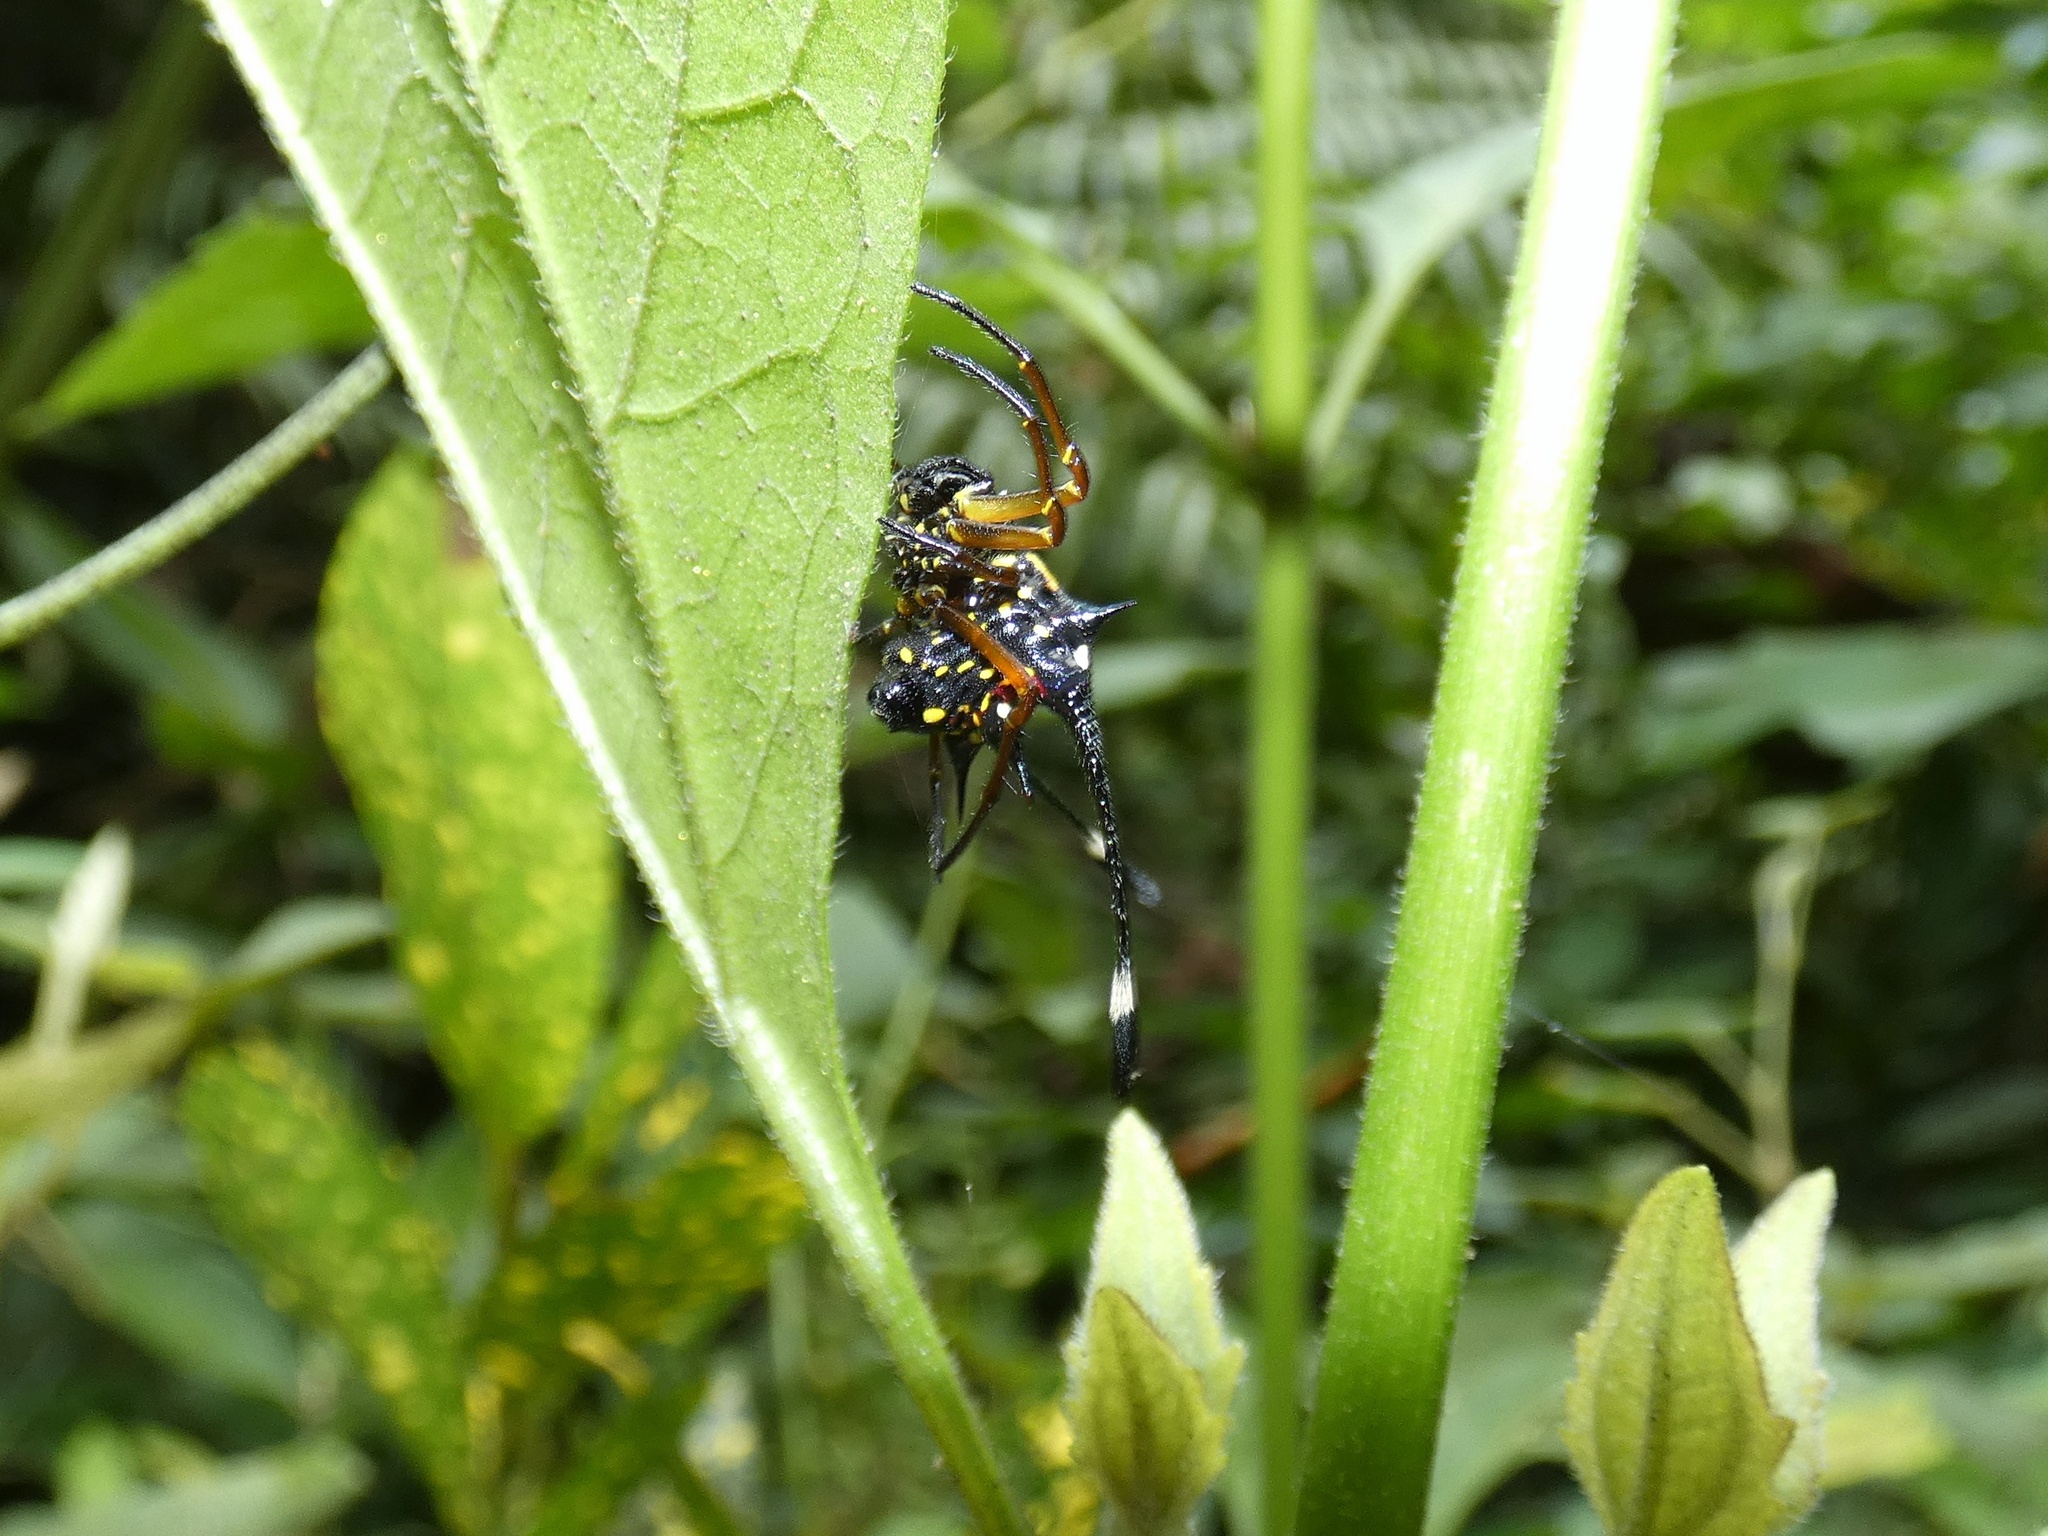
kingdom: Animalia
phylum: Arthropoda
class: Arachnida
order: Araneae
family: Araneidae
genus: Gasteracantha
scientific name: Gasteracantha janopol
